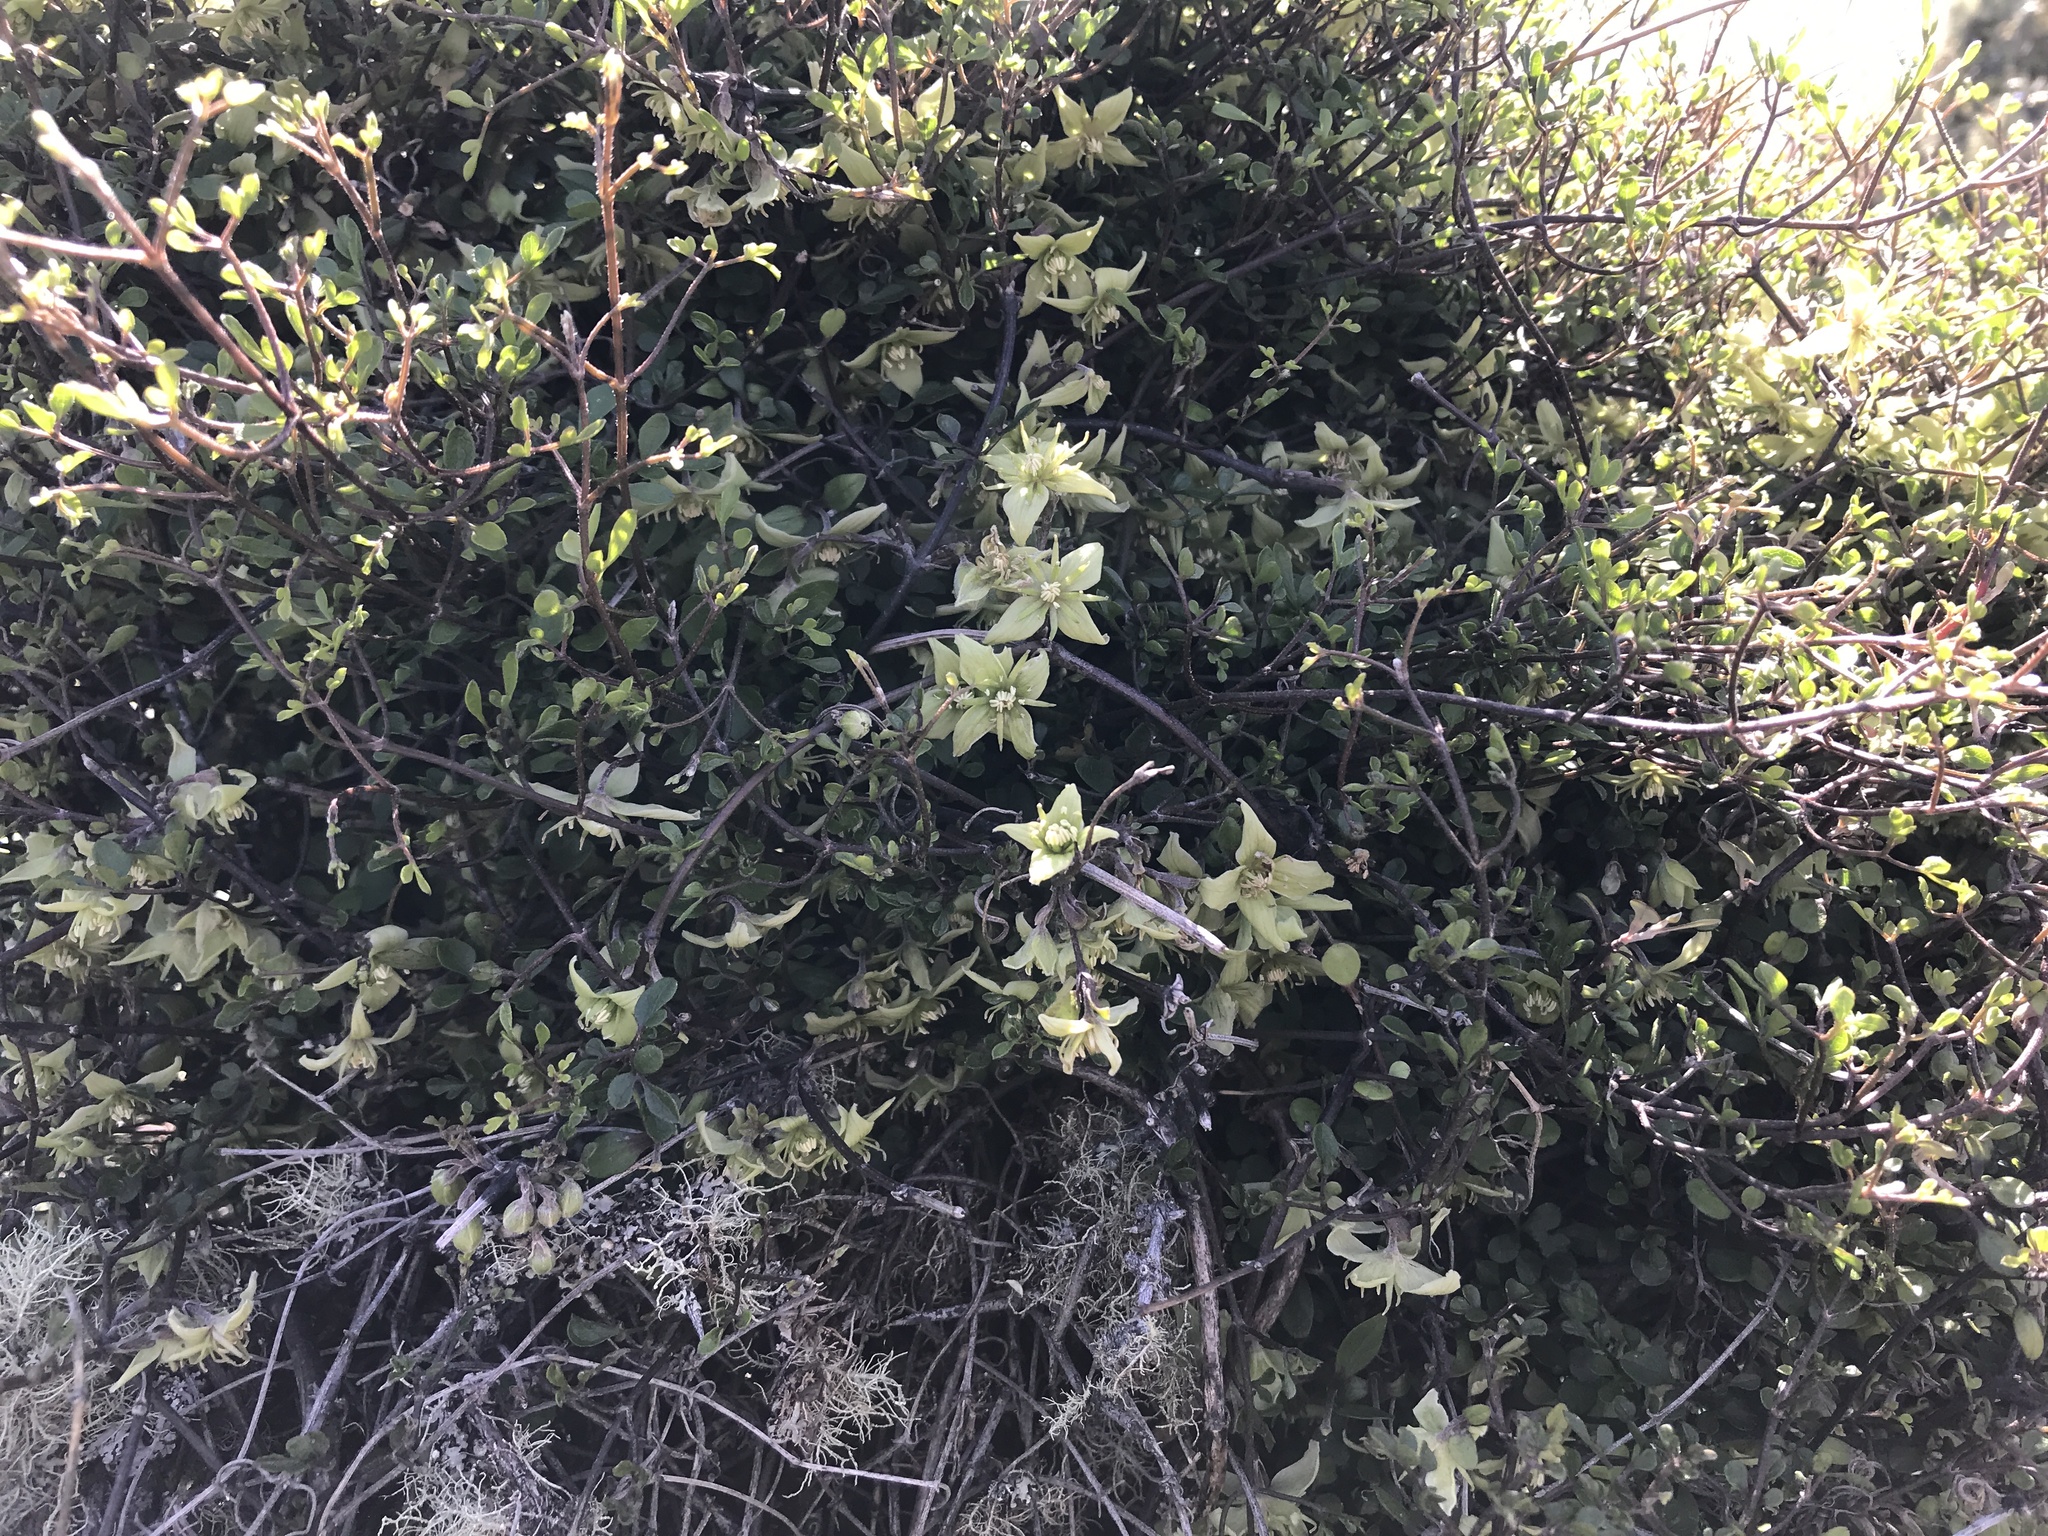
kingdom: Plantae
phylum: Tracheophyta
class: Magnoliopsida
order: Ranunculales
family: Ranunculaceae
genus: Clematis
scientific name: Clematis marata
